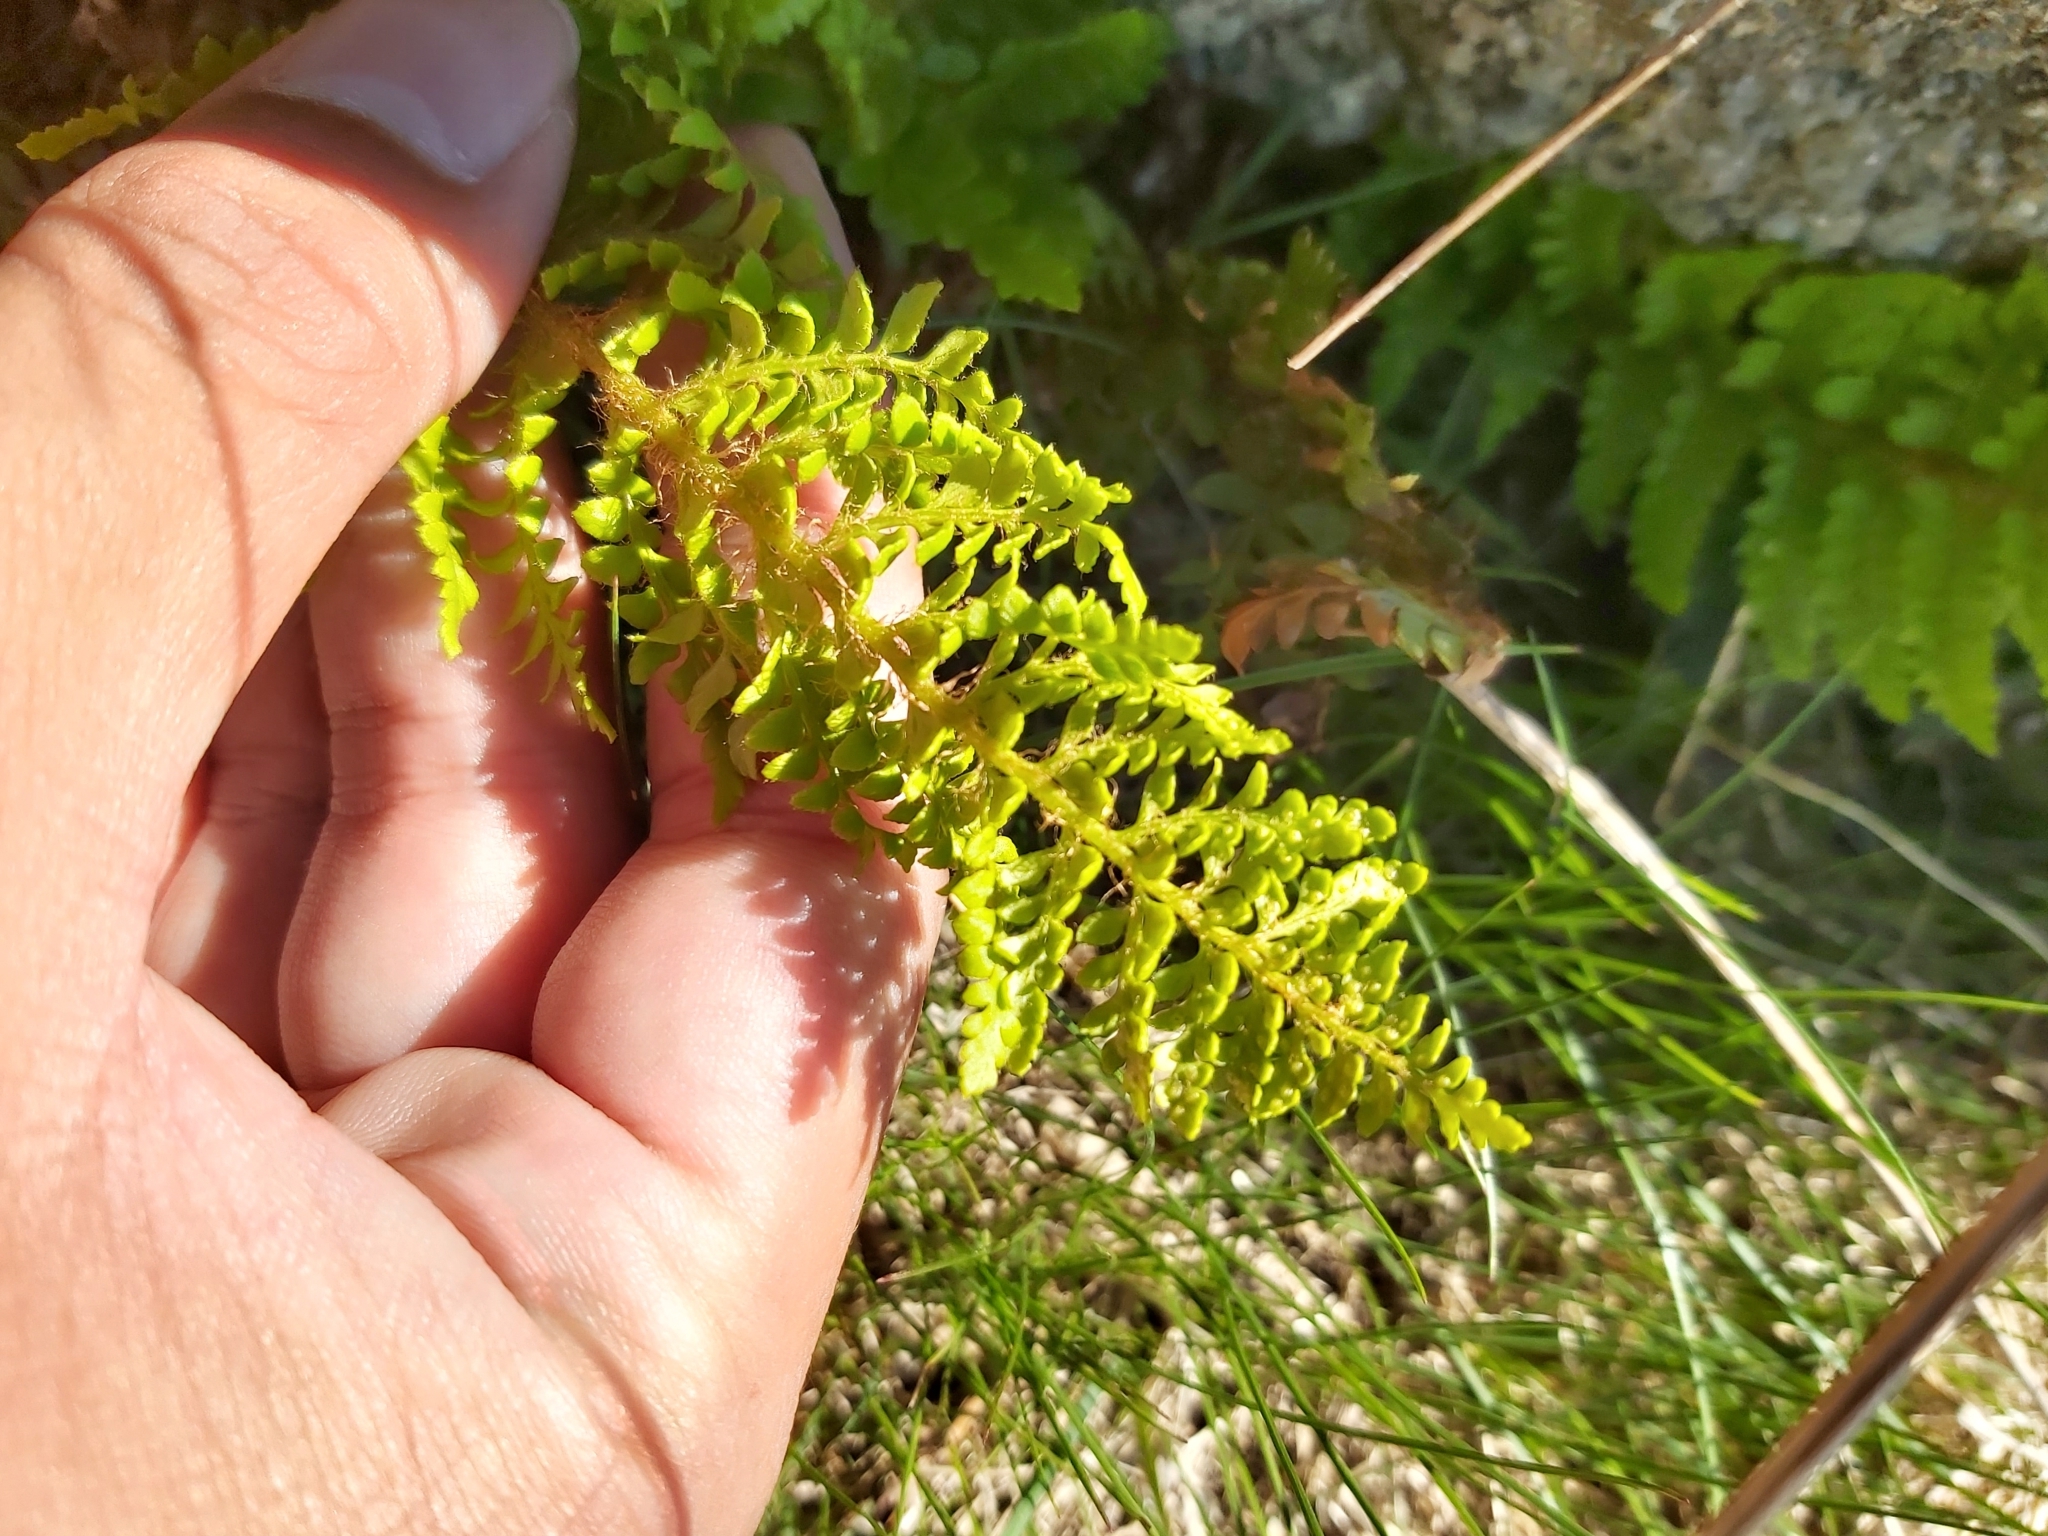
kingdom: Plantae
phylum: Tracheophyta
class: Polypodiopsida
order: Polypodiales
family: Dryopteridaceae
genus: Polystichum
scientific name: Polystichum proliferum
